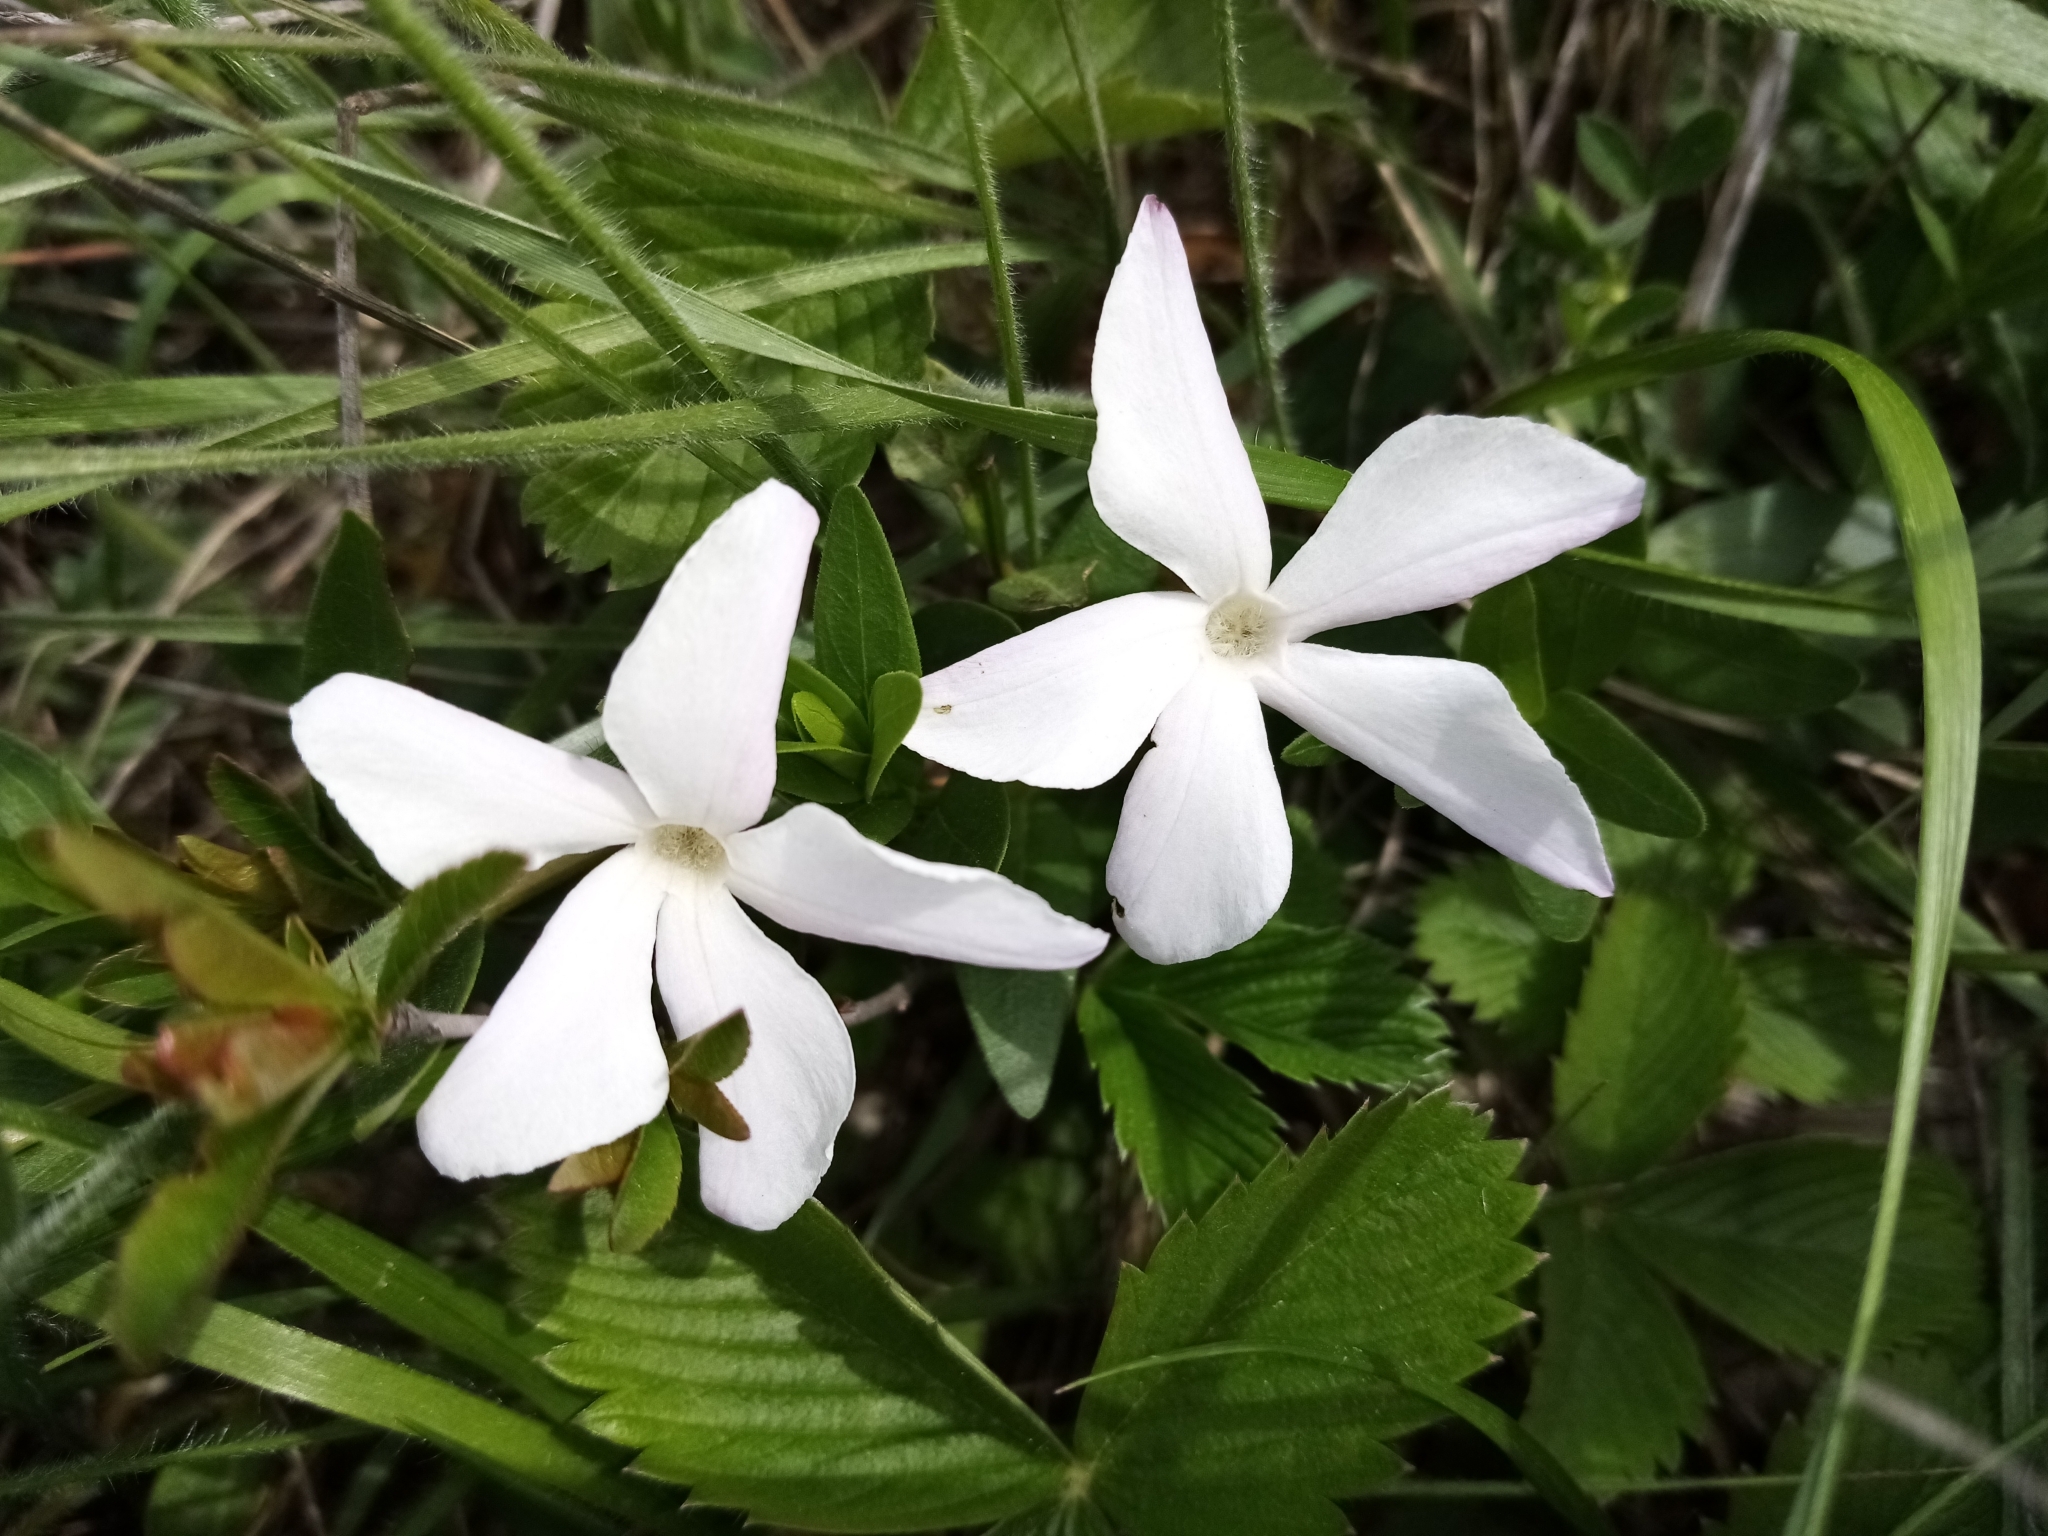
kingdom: Plantae
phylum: Tracheophyta
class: Magnoliopsida
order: Gentianales
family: Apocynaceae
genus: Vinca
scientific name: Vinca herbacea
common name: Herbaceous periwinkle
